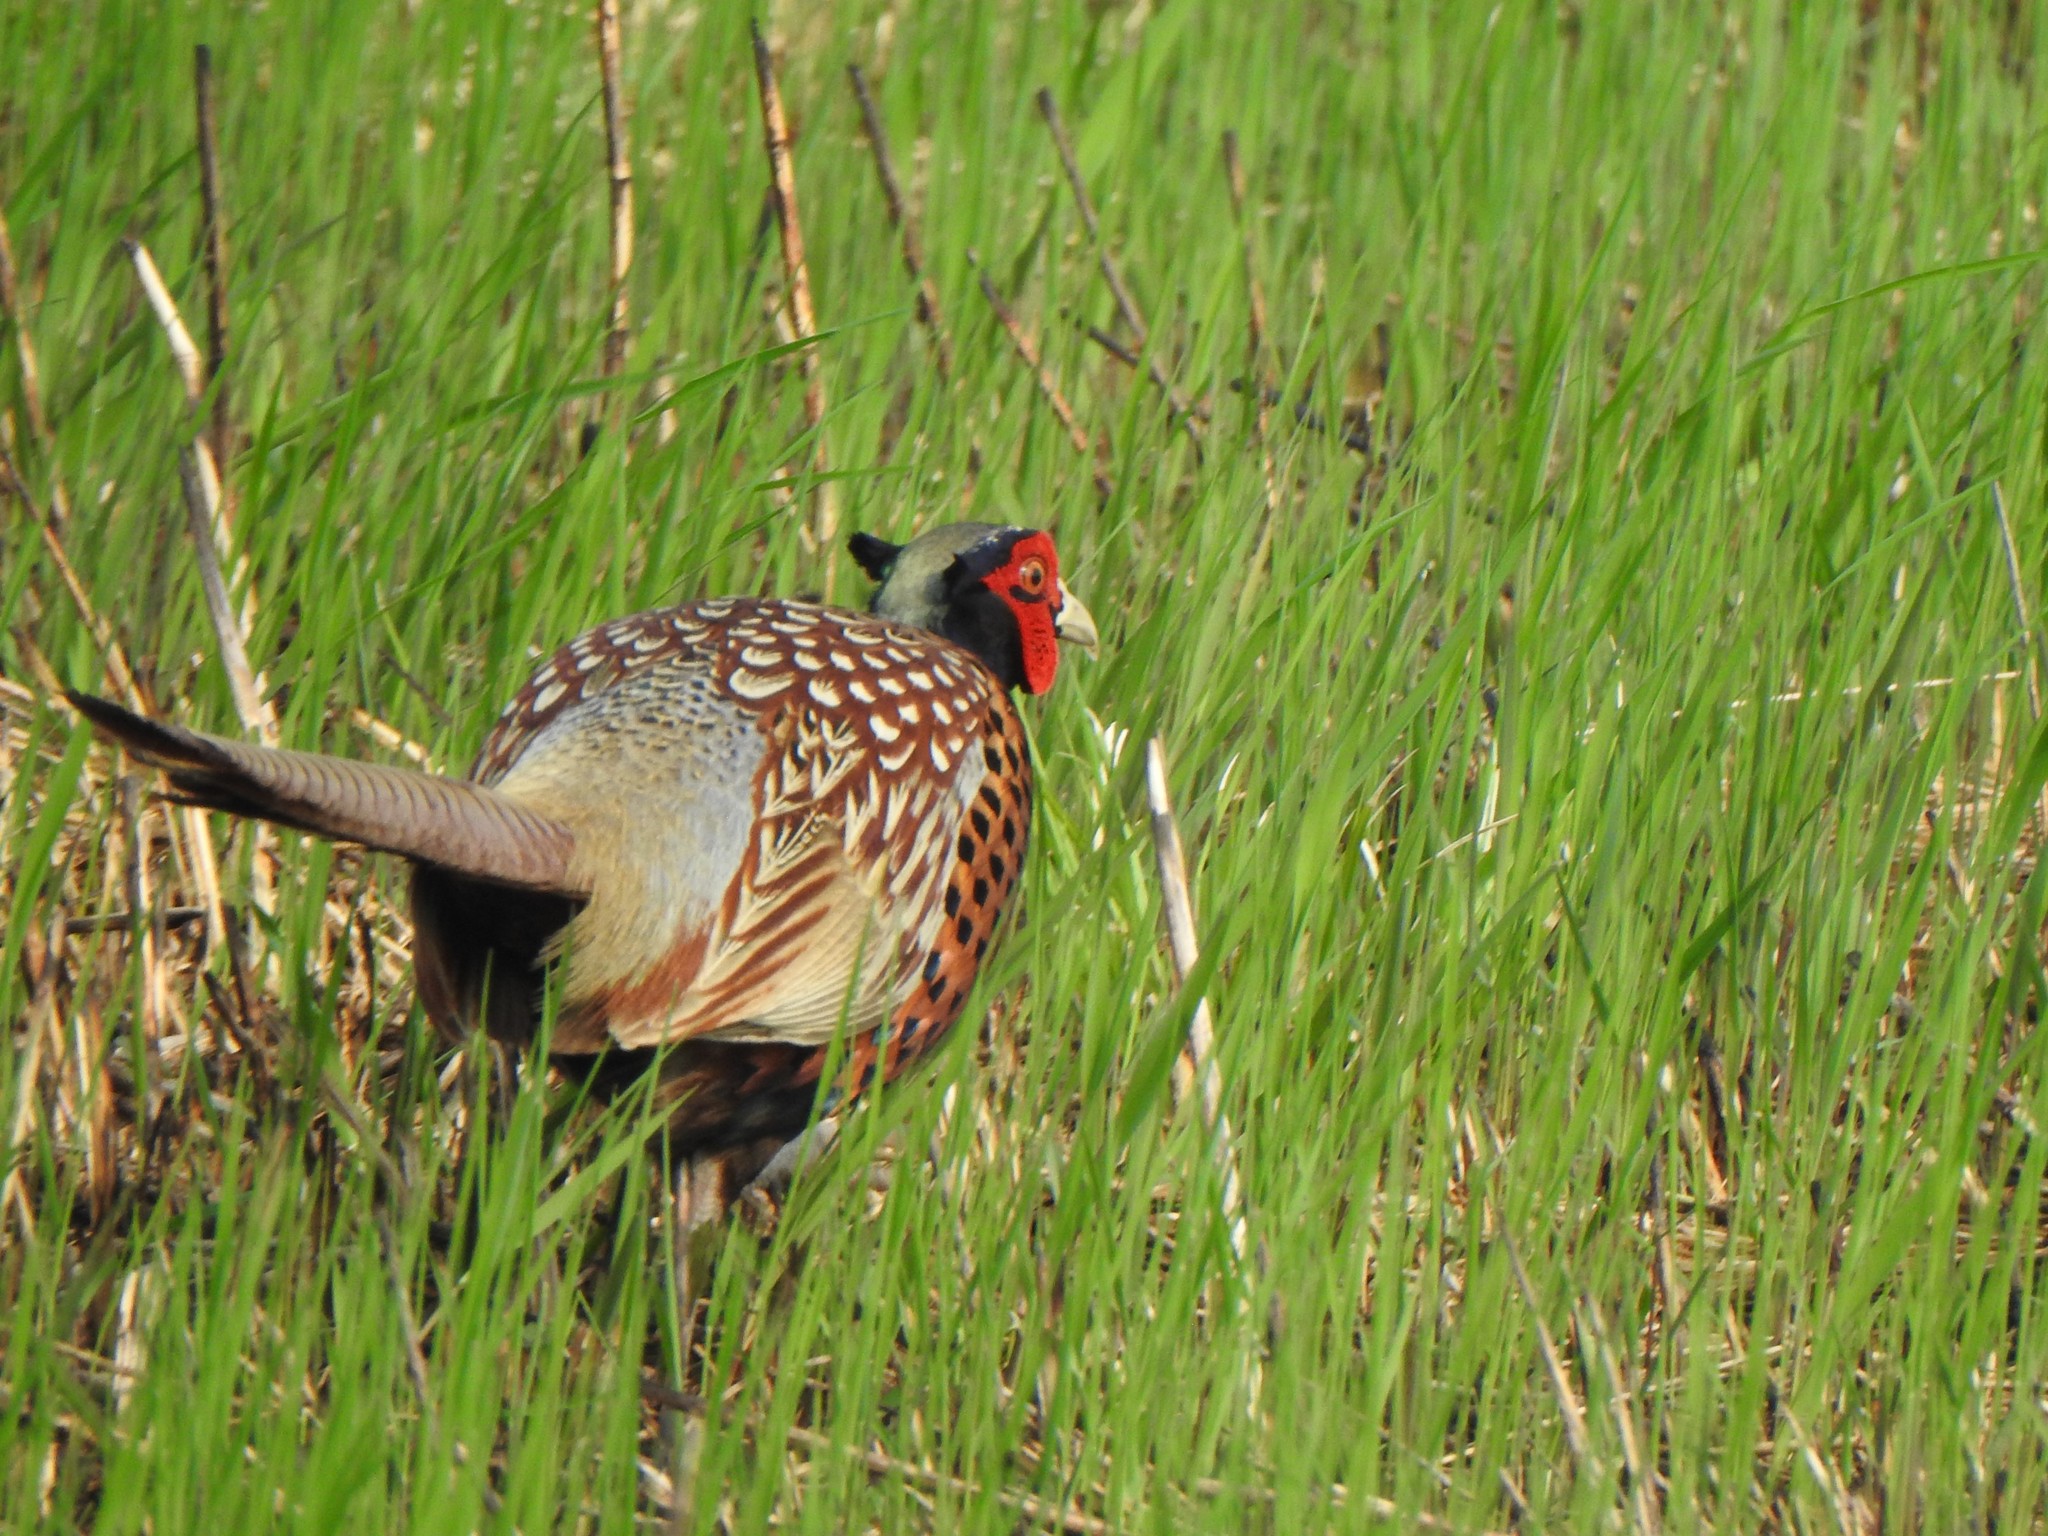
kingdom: Animalia
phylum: Chordata
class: Aves
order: Galliformes
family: Phasianidae
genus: Phasianus
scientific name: Phasianus colchicus
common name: Common pheasant
